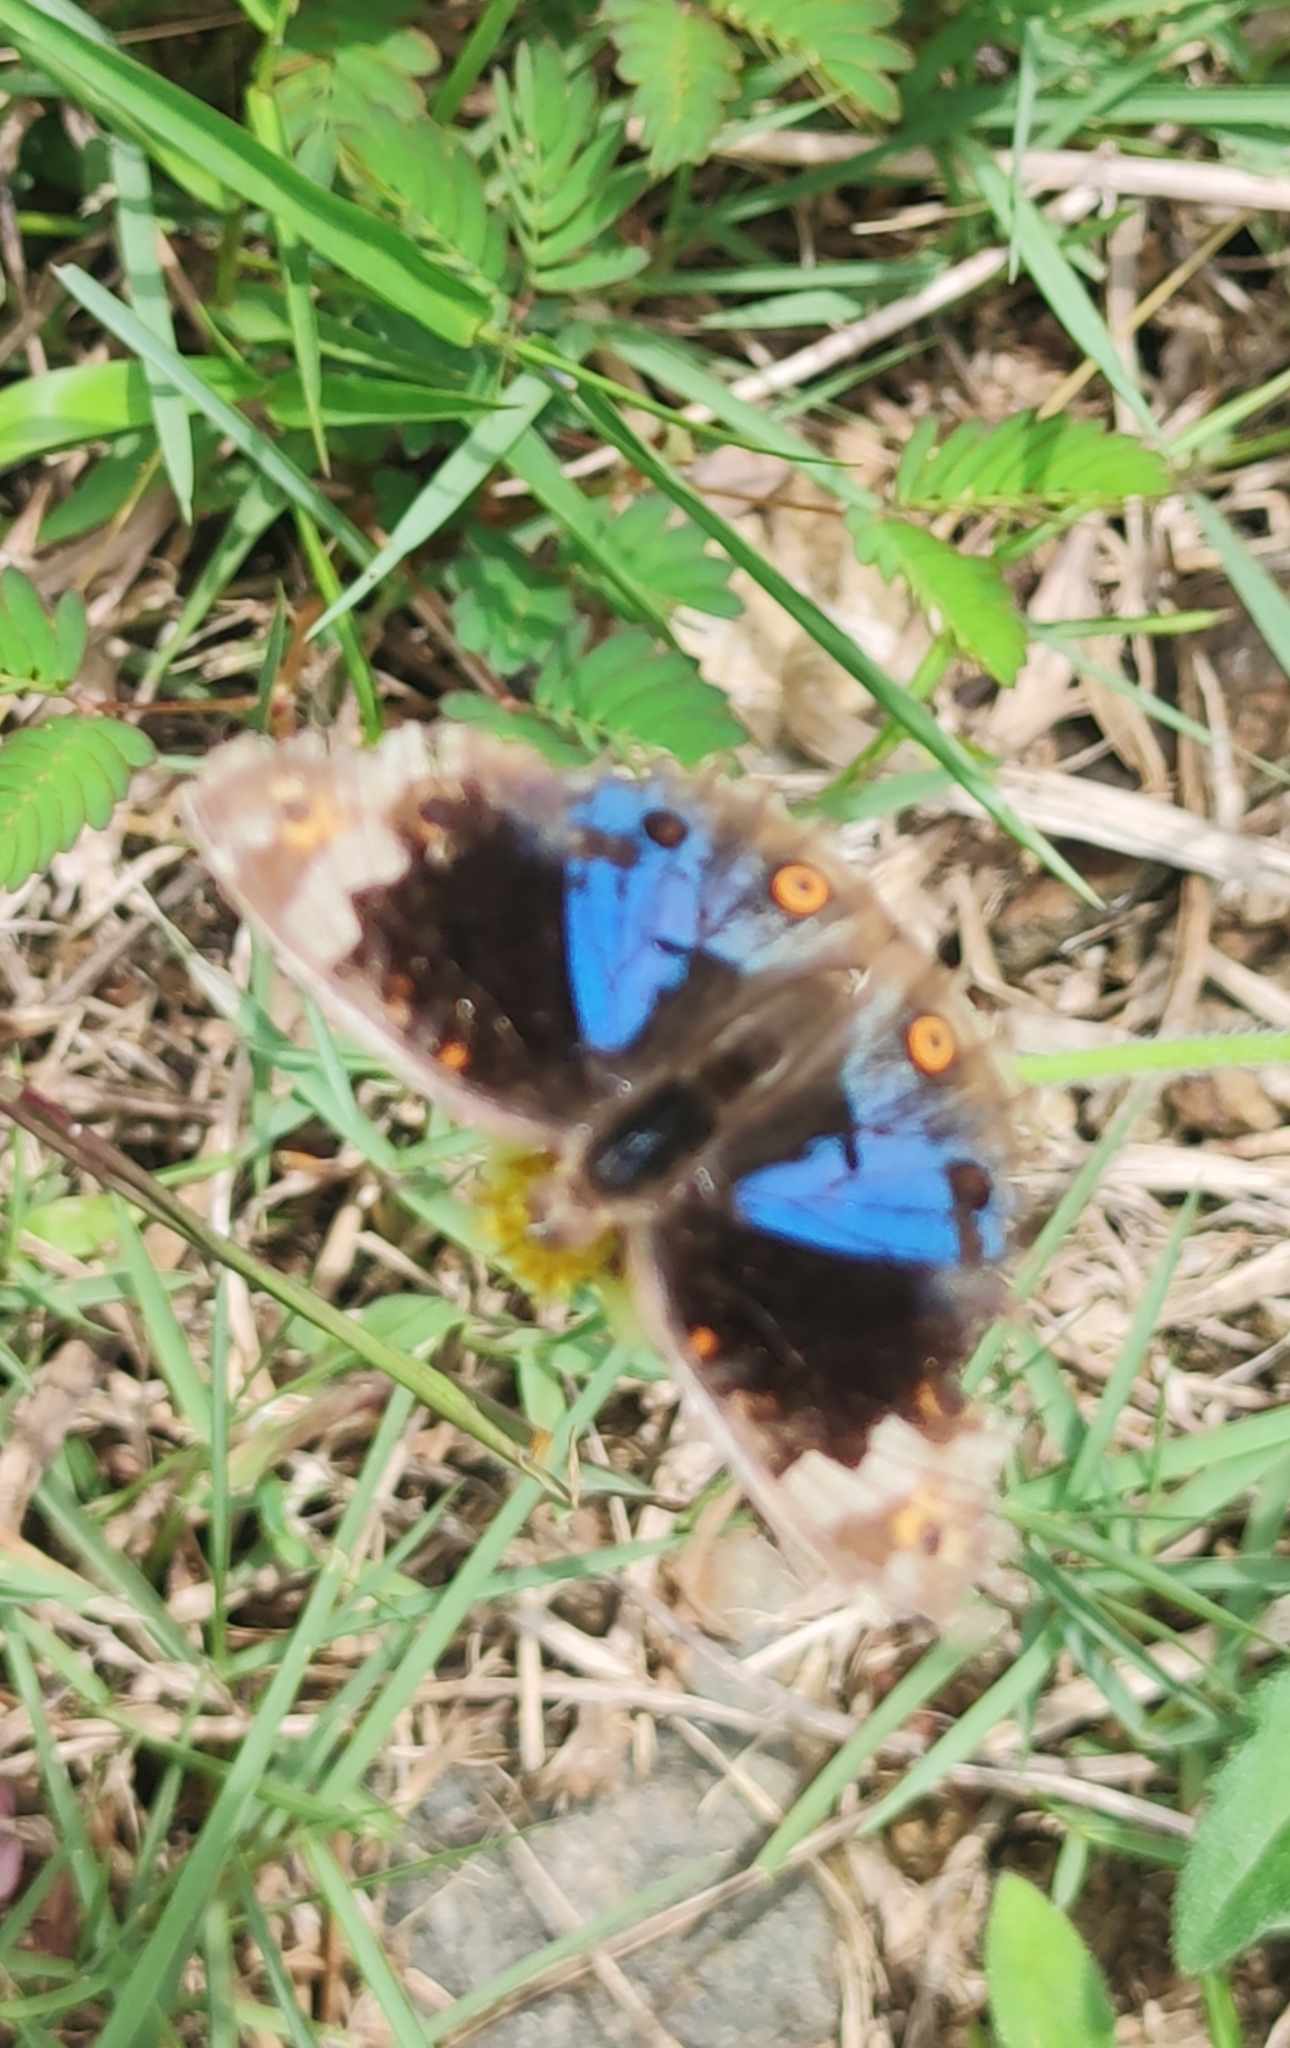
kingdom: Animalia
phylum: Arthropoda
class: Insecta
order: Lepidoptera
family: Nymphalidae
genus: Junonia
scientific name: Junonia orithya
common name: Blue pansy
